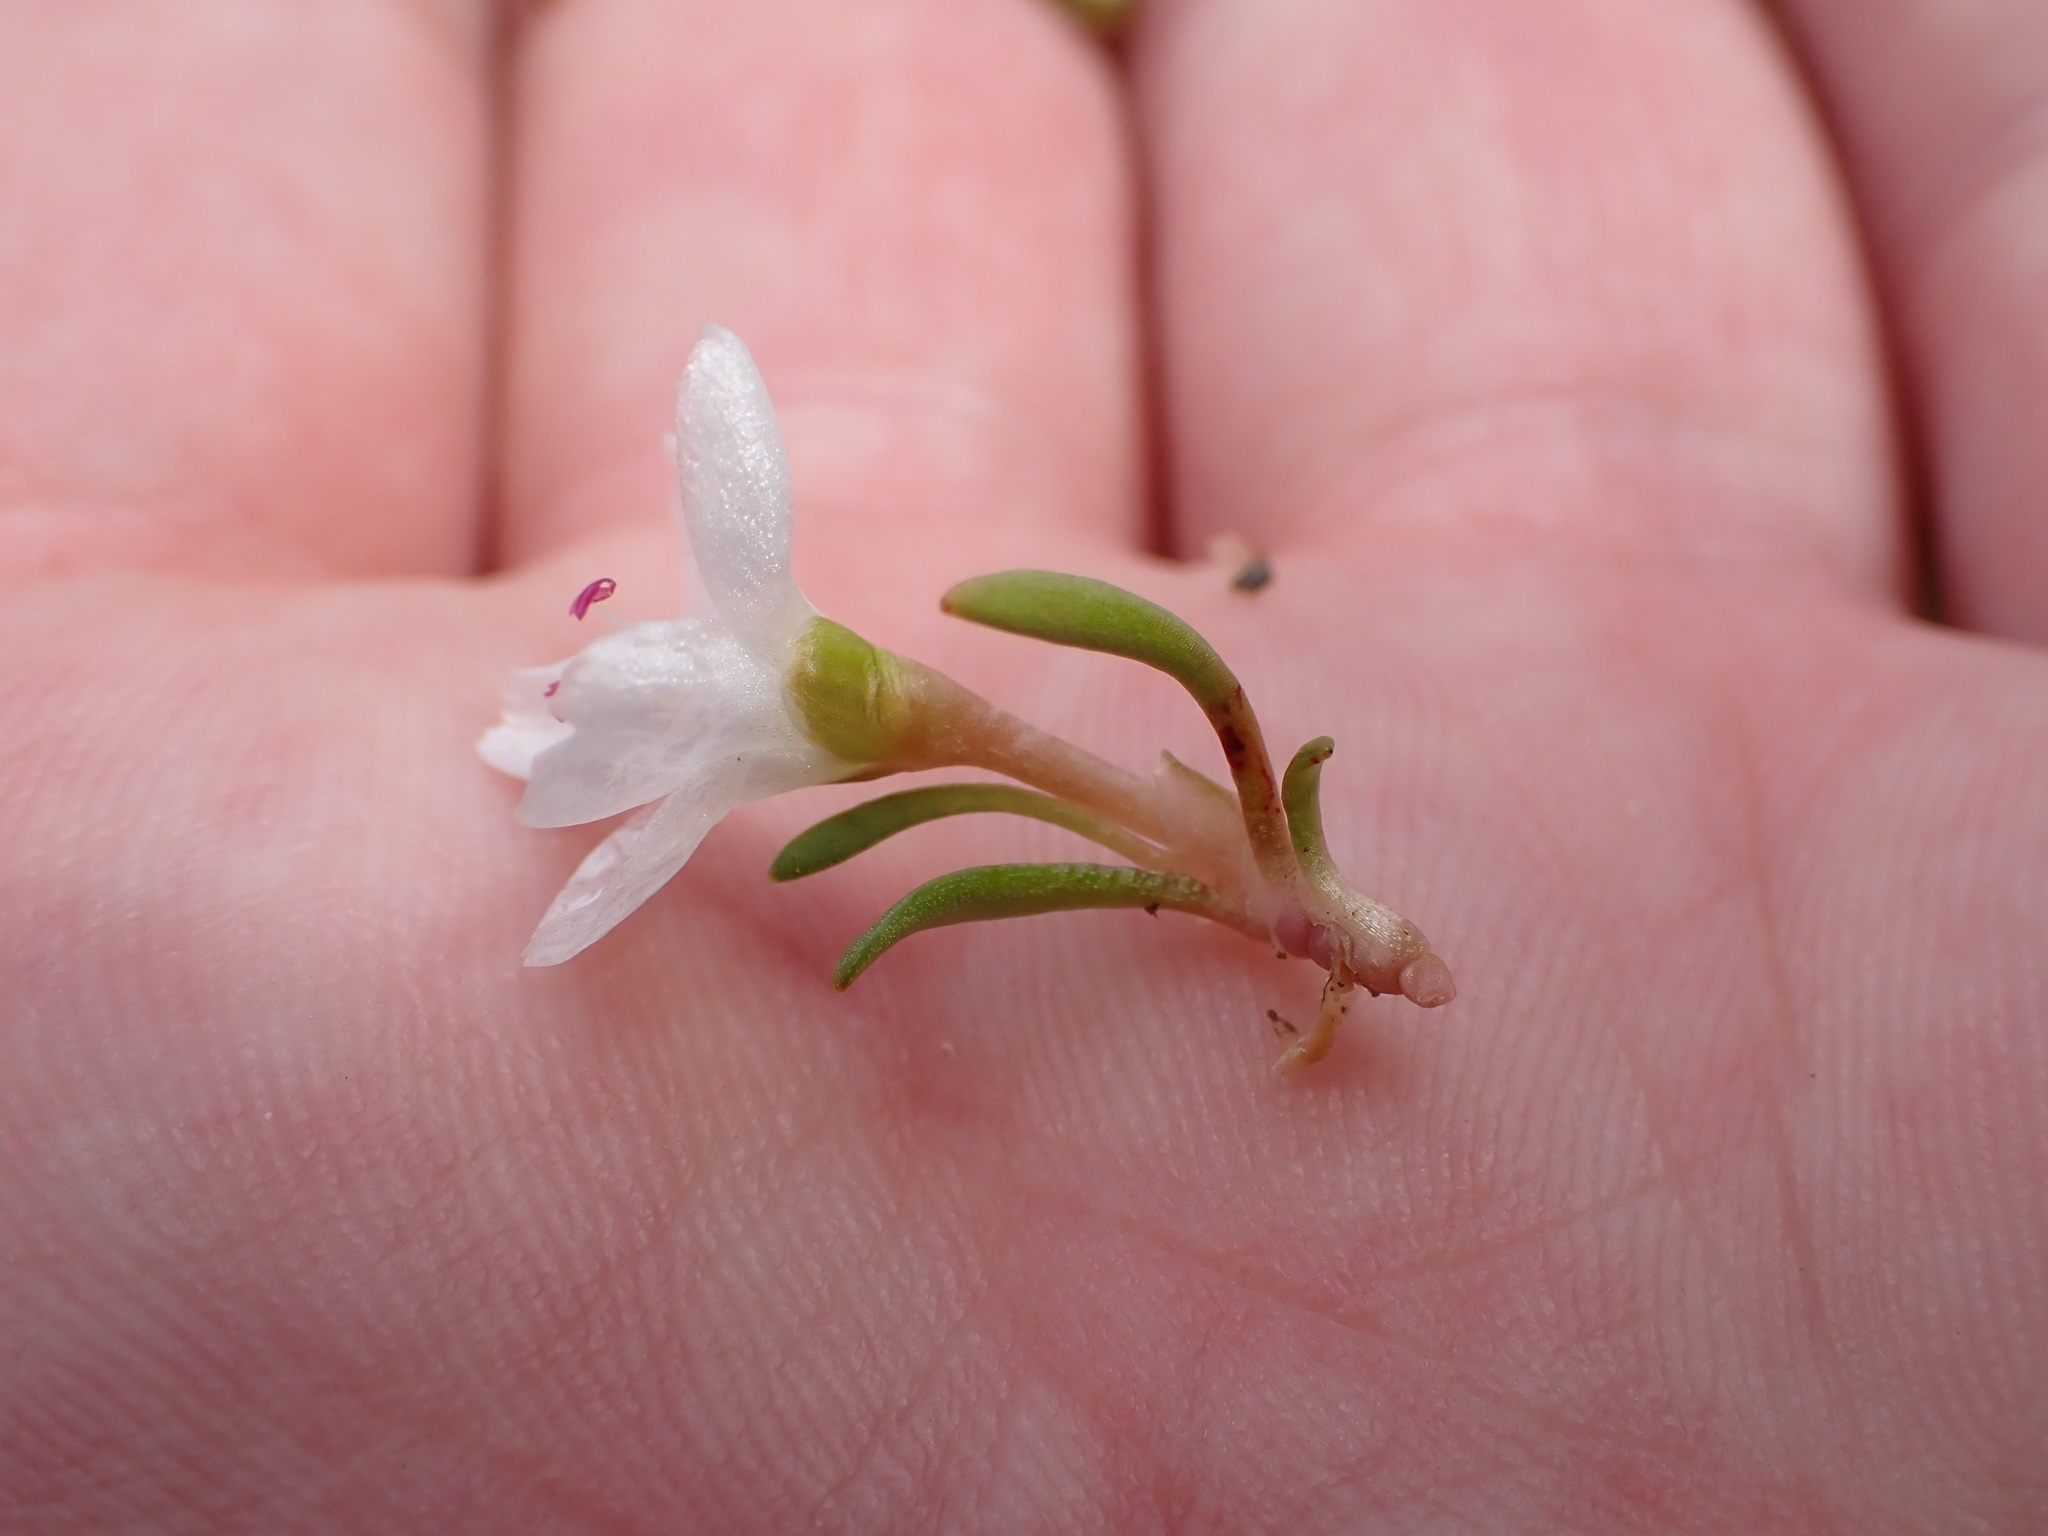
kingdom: Plantae
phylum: Tracheophyta
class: Magnoliopsida
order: Caryophyllales
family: Montiaceae
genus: Montia
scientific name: Montia sessiliflora
